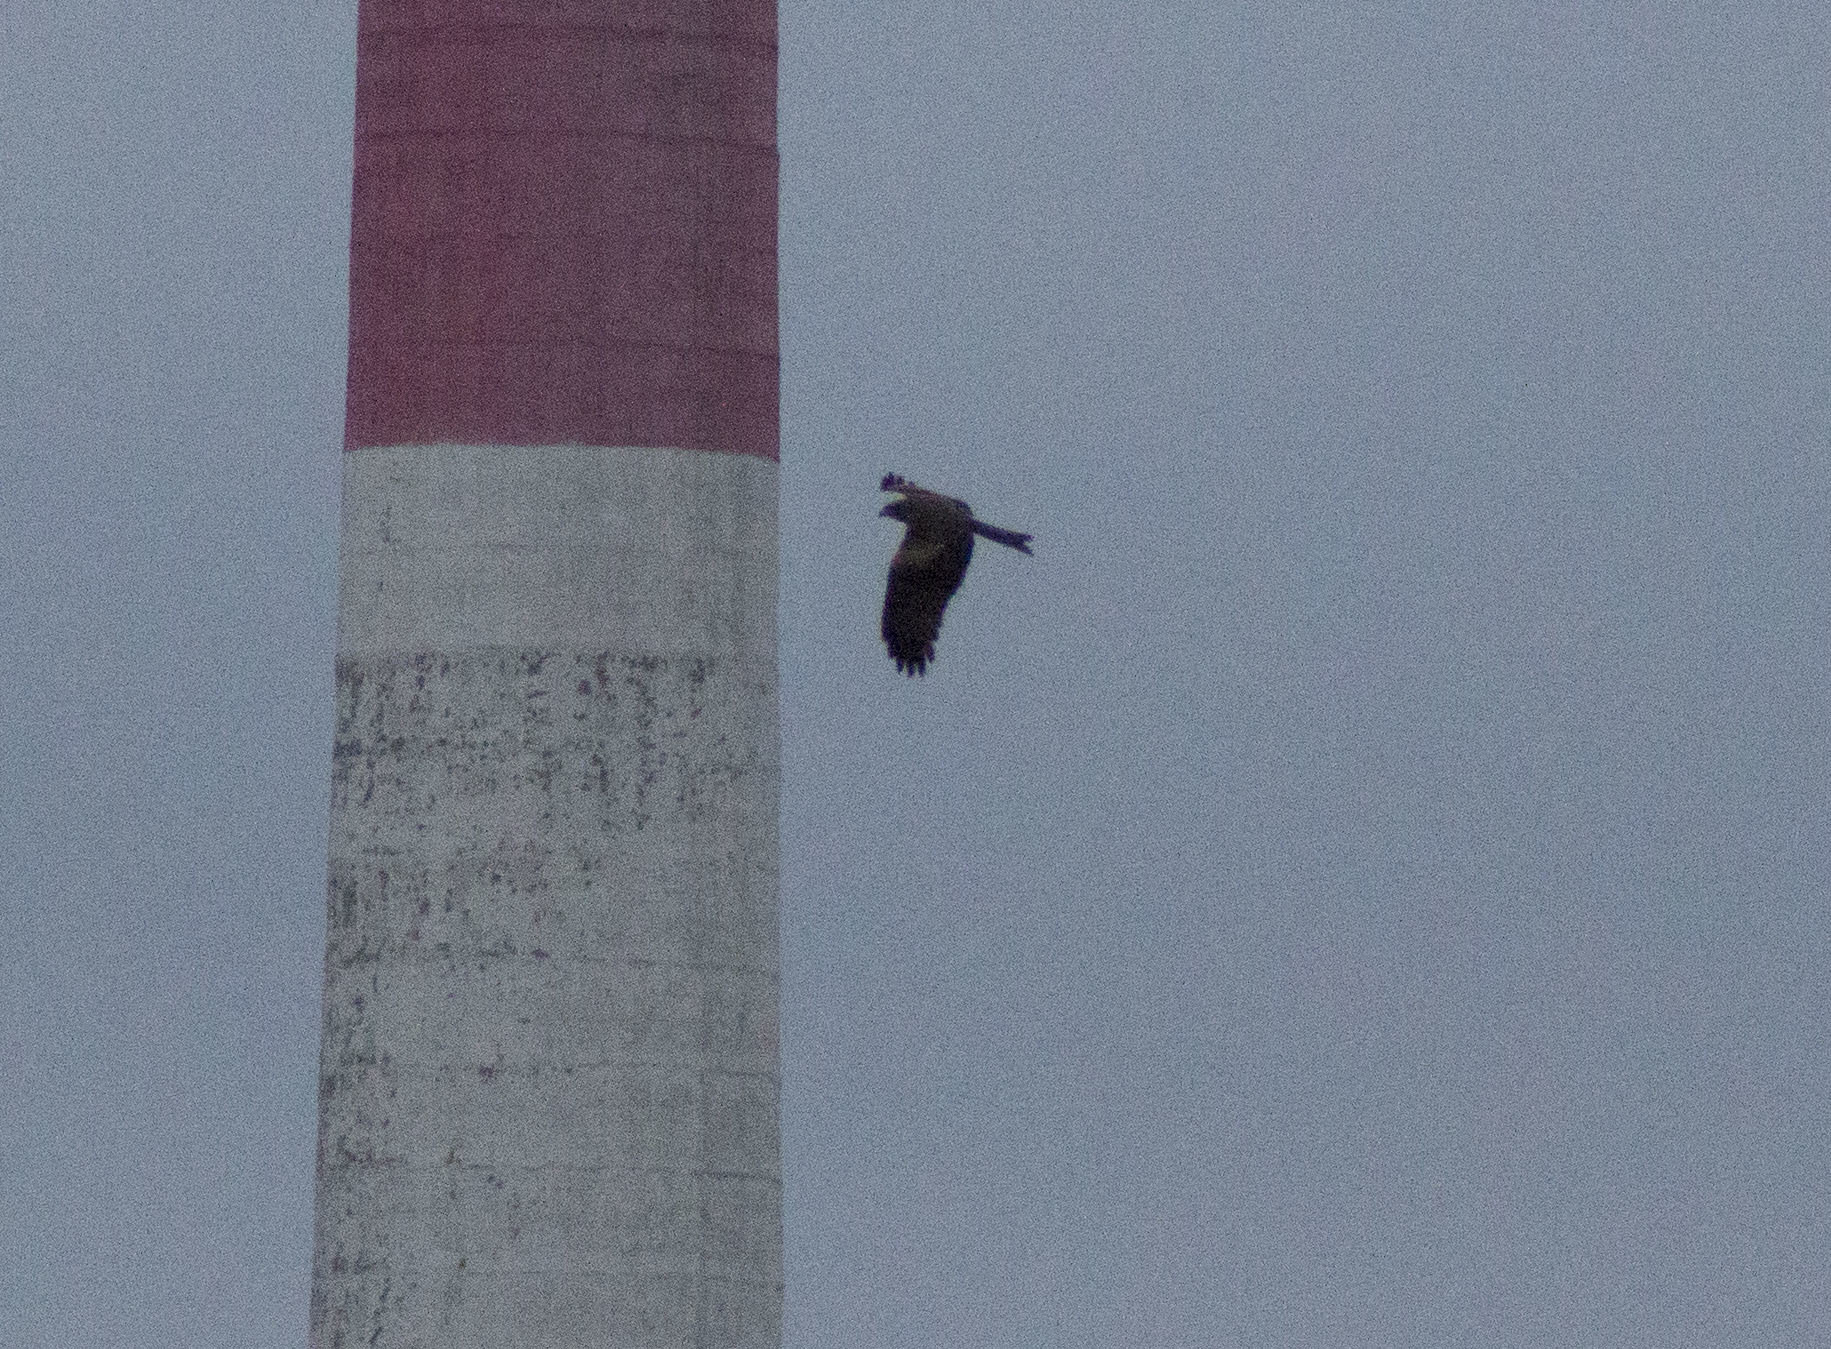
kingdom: Animalia
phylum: Chordata
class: Aves
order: Accipitriformes
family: Accipitridae
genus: Milvus
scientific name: Milvus migrans
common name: Black kite
